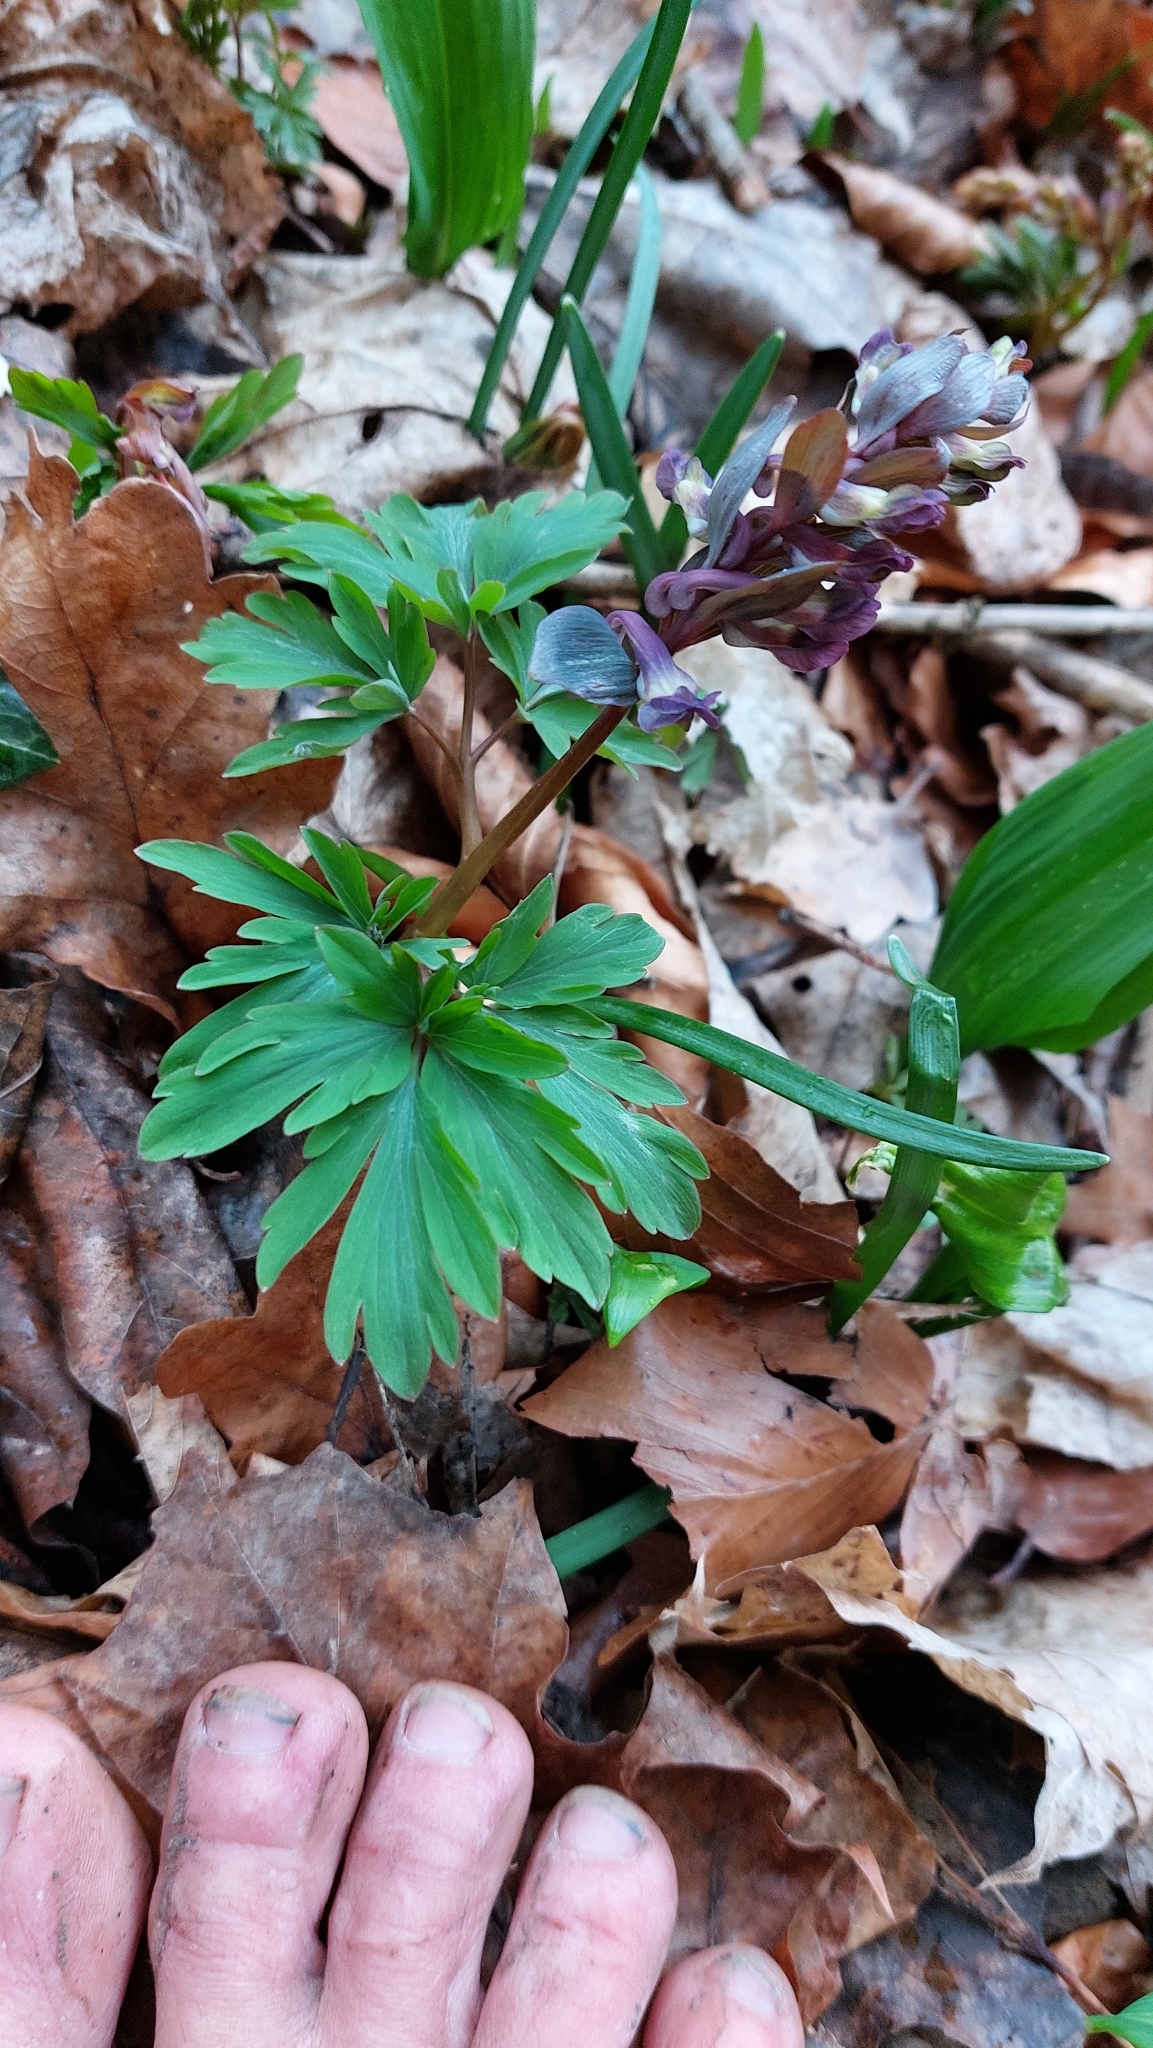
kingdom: Plantae
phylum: Tracheophyta
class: Magnoliopsida
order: Ranunculales
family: Papaveraceae
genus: Corydalis
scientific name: Corydalis cava
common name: Hollowroot
